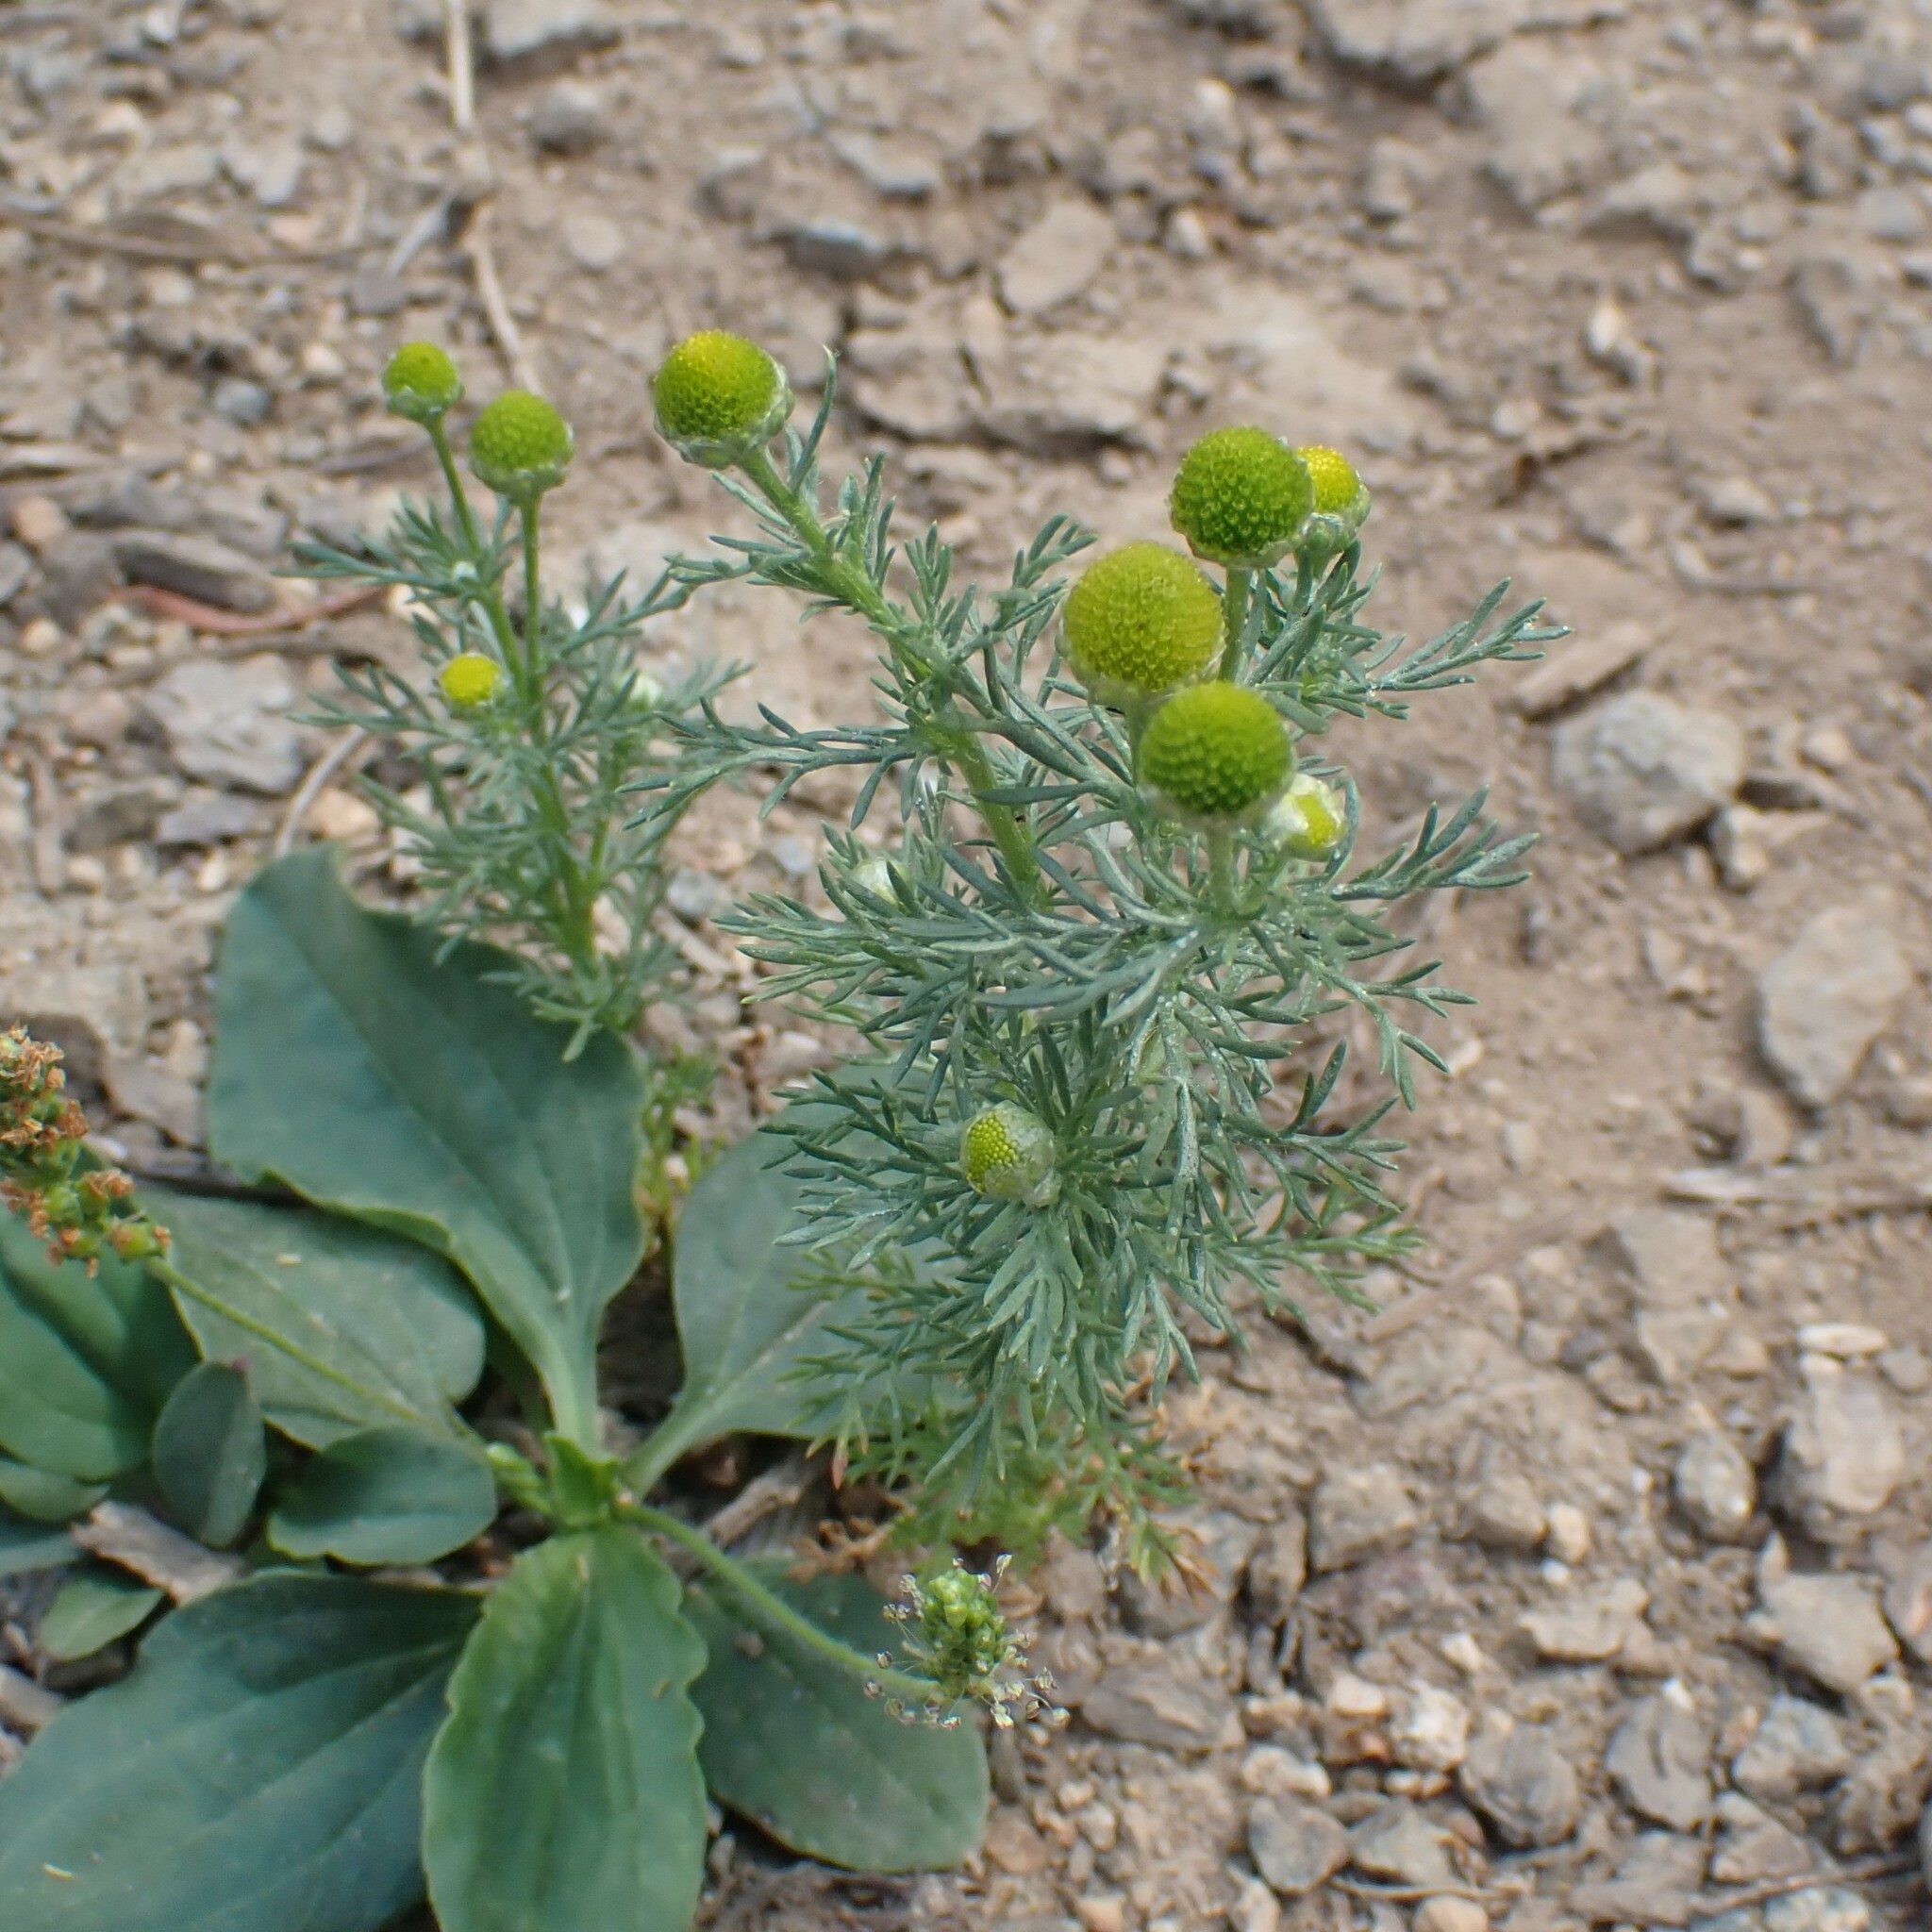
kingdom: Plantae
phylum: Tracheophyta
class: Magnoliopsida
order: Asterales
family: Asteraceae
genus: Matricaria
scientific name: Matricaria discoidea
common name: Disc mayweed
